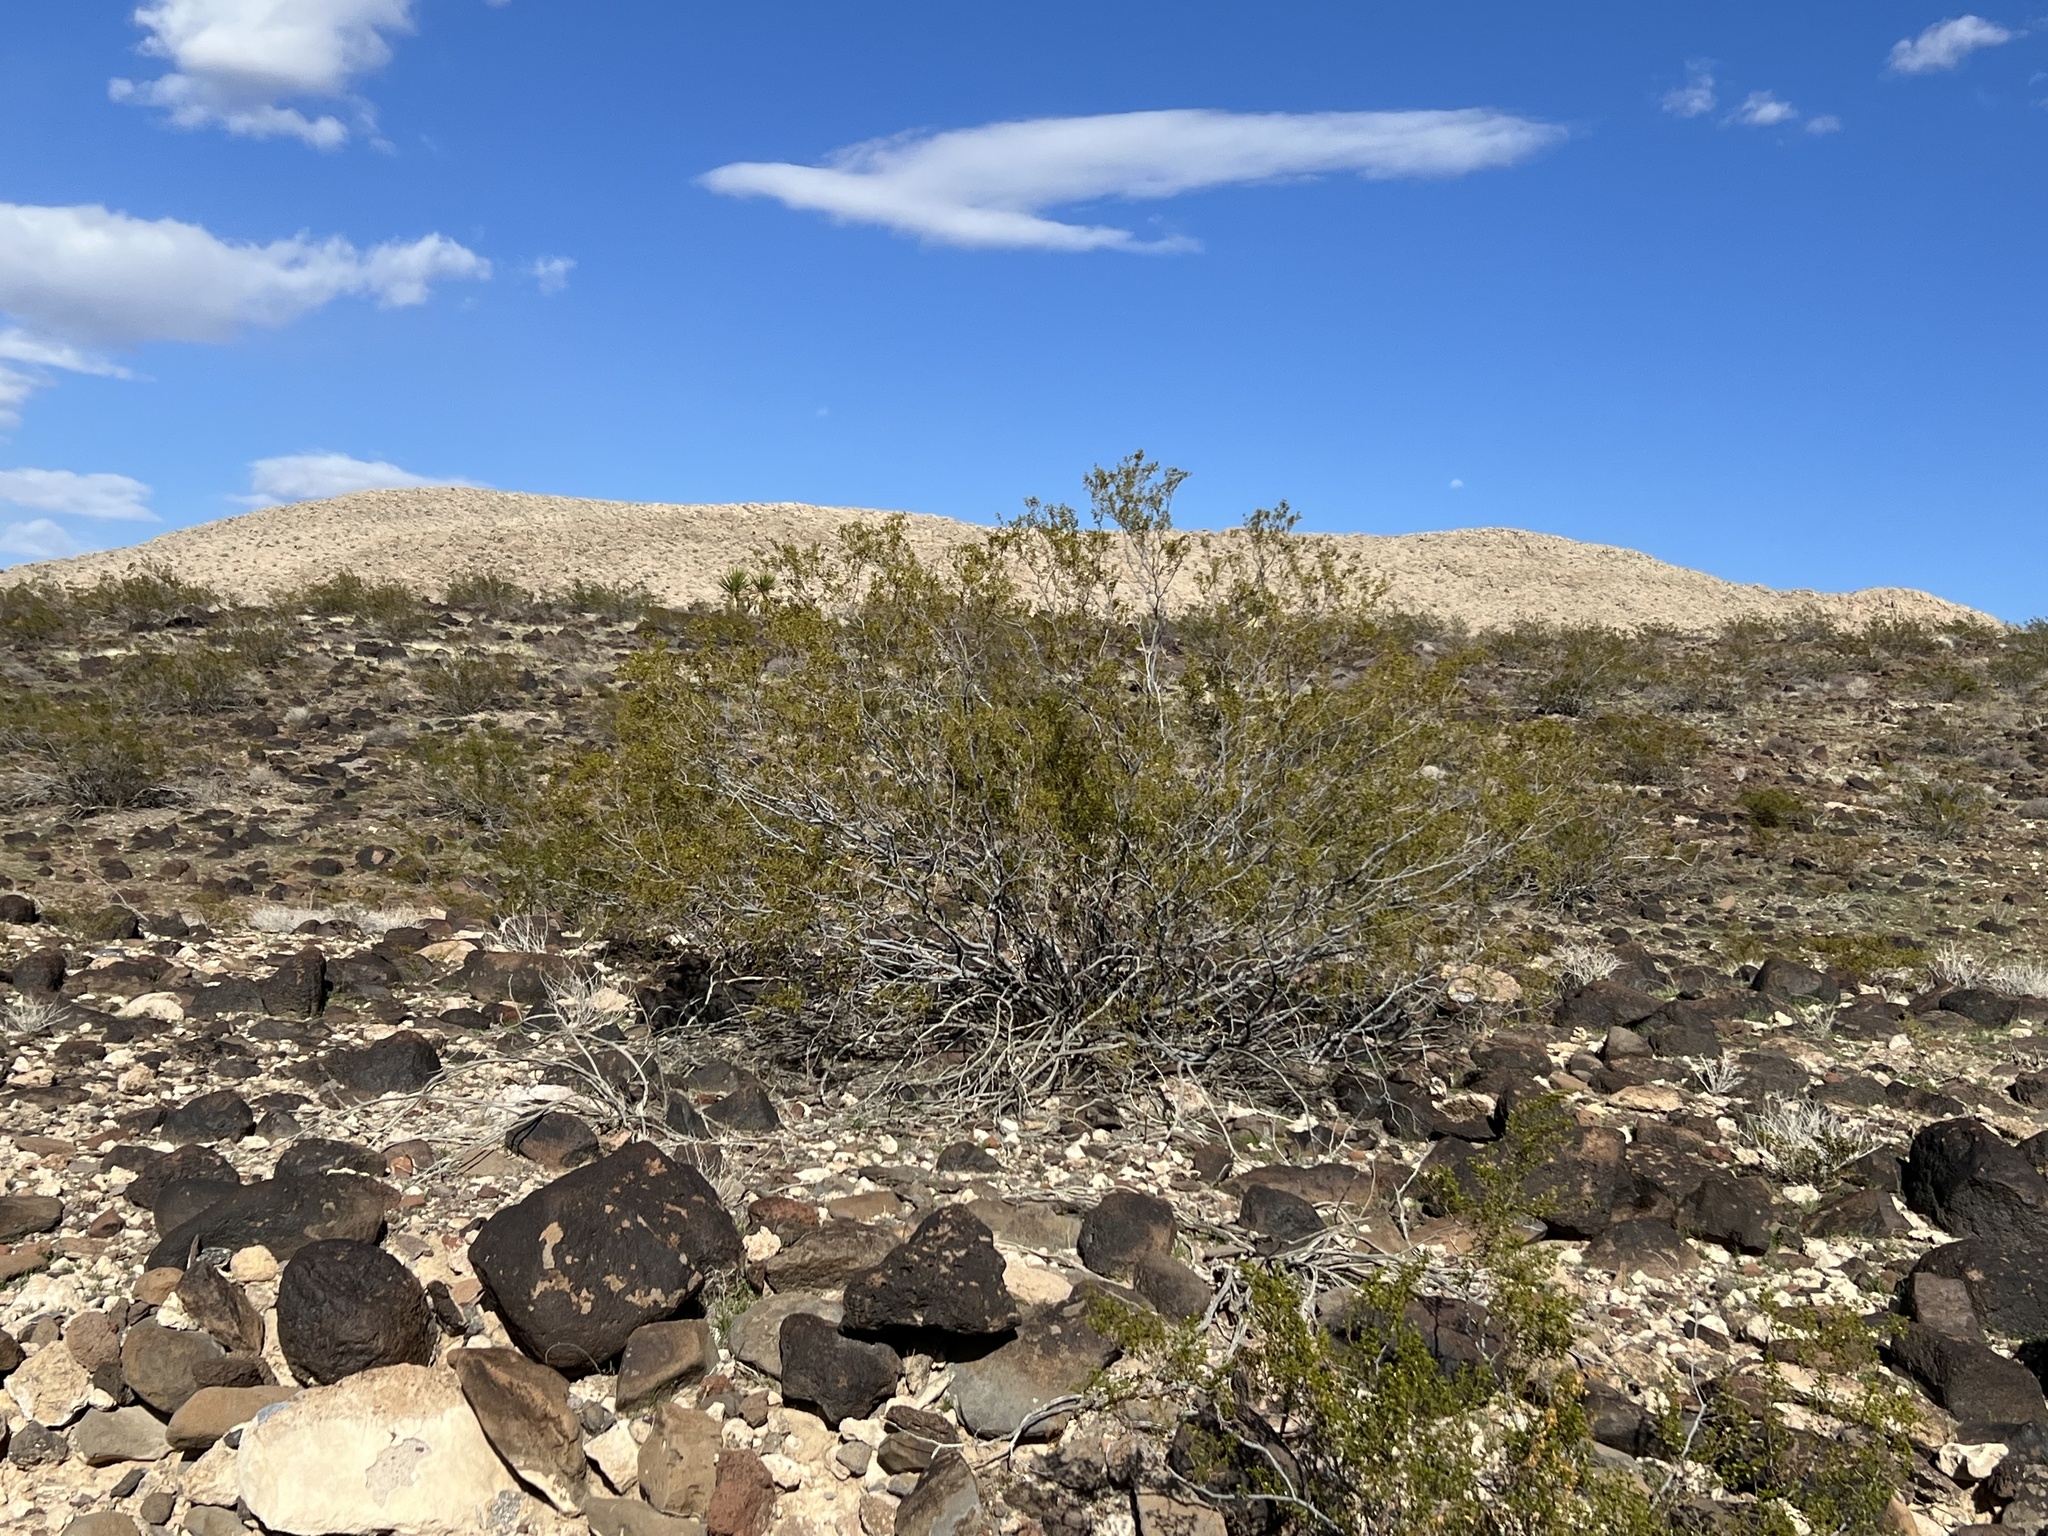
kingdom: Plantae
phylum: Tracheophyta
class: Magnoliopsida
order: Zygophyllales
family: Zygophyllaceae
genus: Larrea
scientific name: Larrea tridentata
